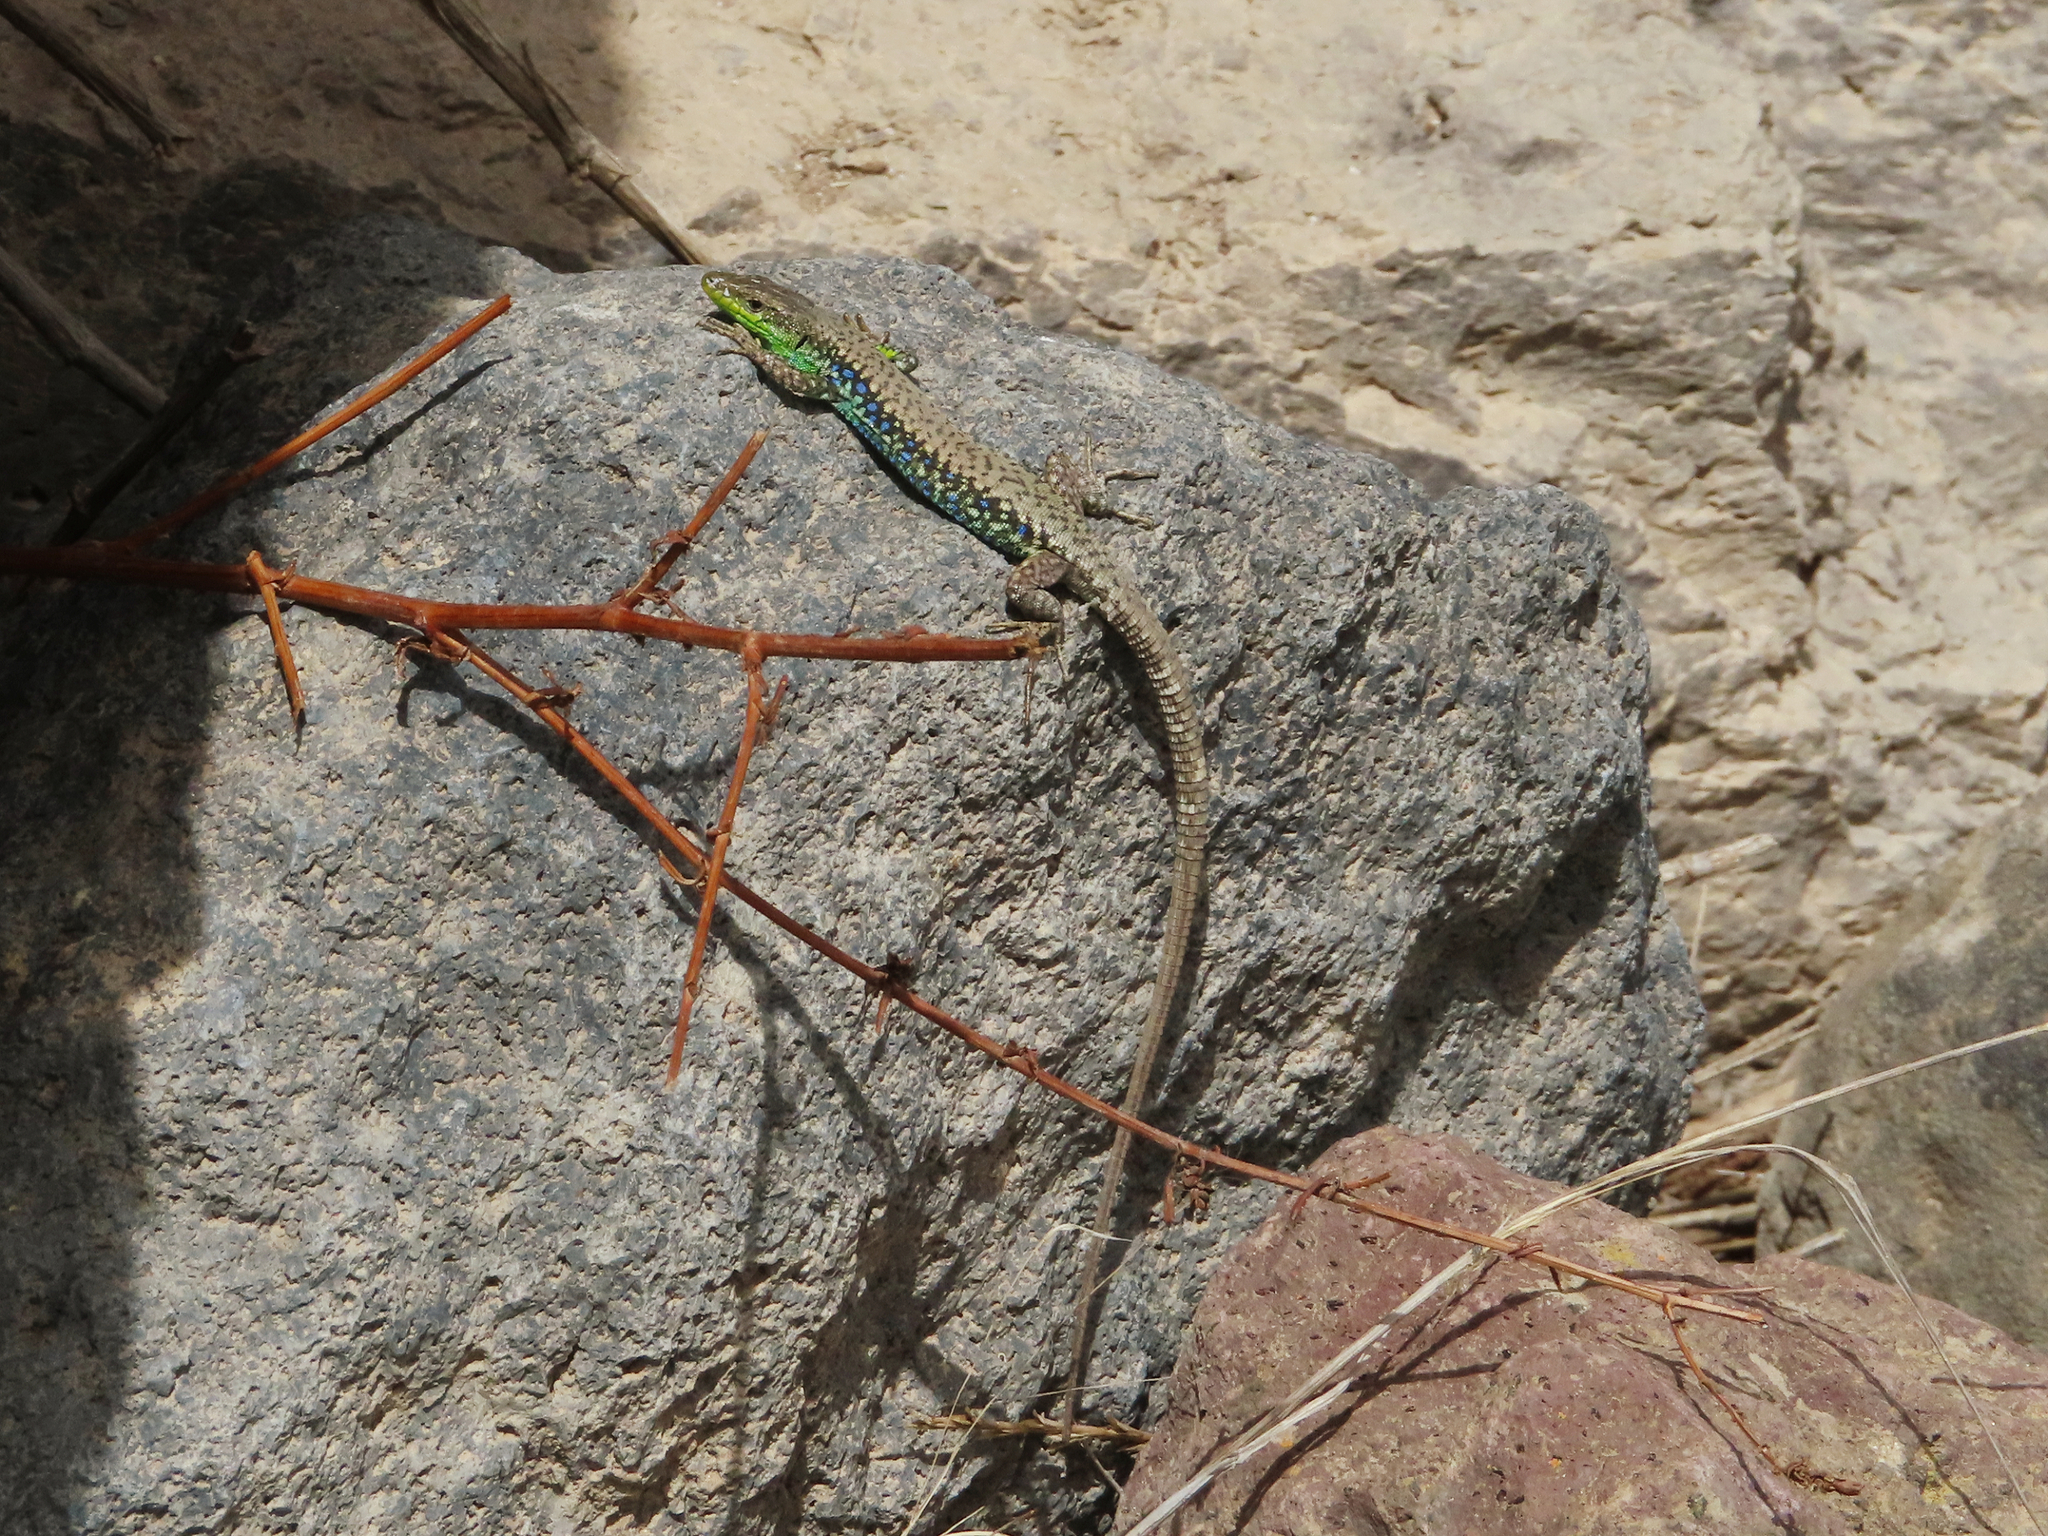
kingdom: Animalia
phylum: Chordata
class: Squamata
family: Lacertidae
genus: Darevskia
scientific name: Darevskia raddei
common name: Radde's lizard
